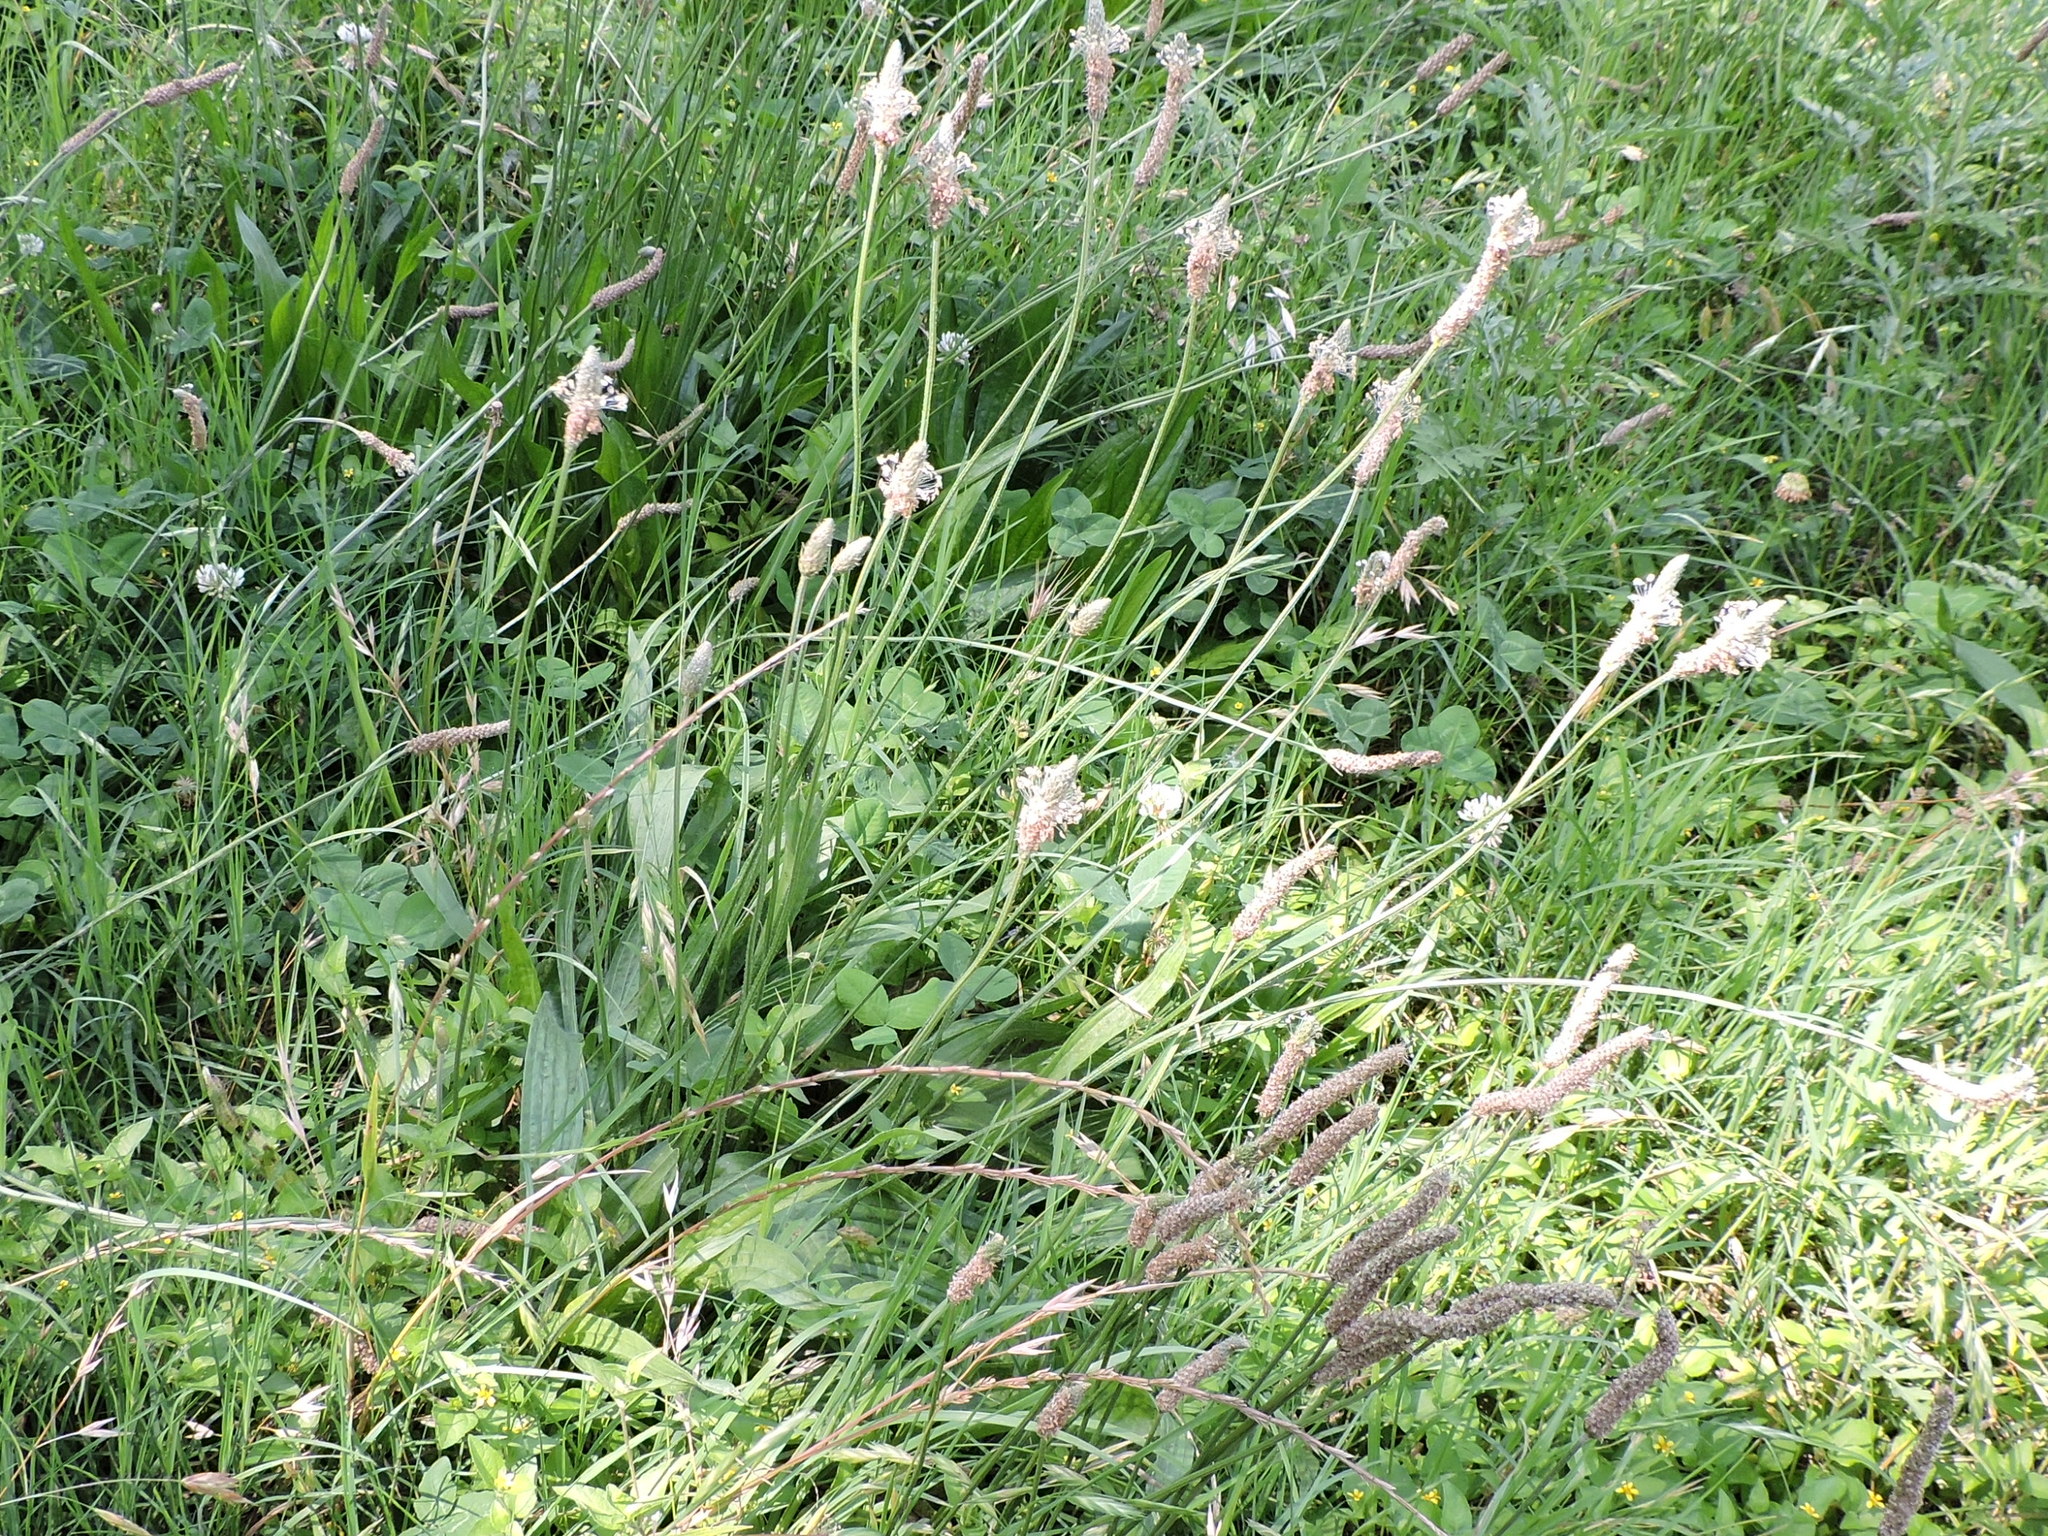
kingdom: Plantae
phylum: Tracheophyta
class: Magnoliopsida
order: Lamiales
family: Plantaginaceae
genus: Plantago
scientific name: Plantago lanceolata
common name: Ribwort plantain
